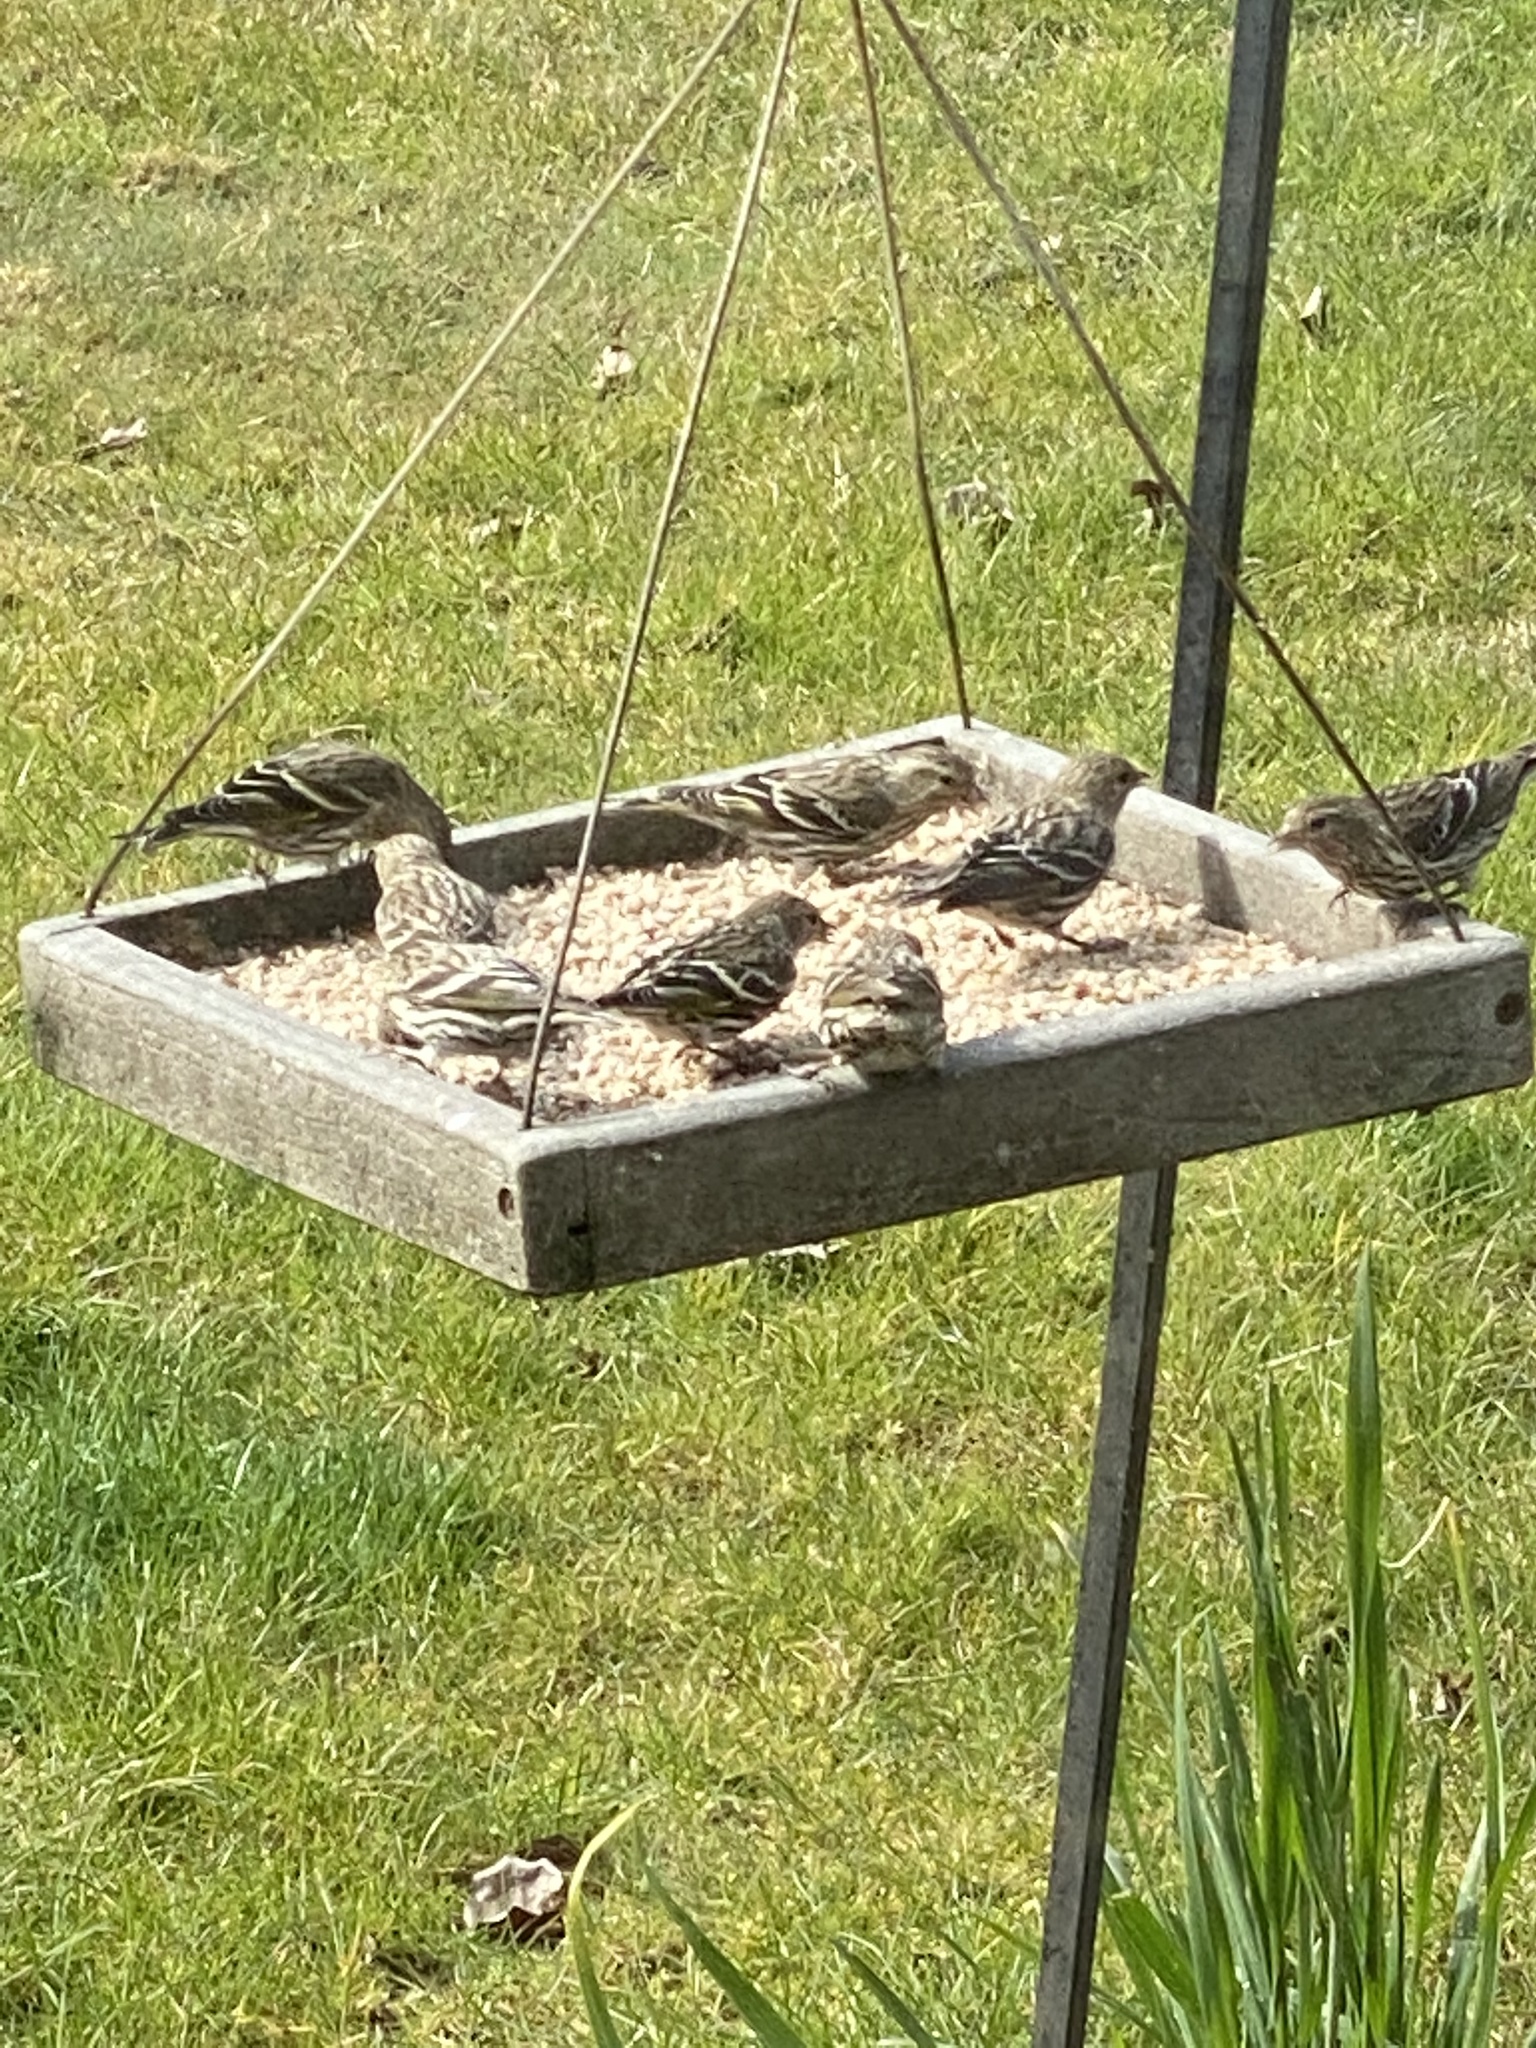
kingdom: Animalia
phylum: Chordata
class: Aves
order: Passeriformes
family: Fringillidae
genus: Spinus
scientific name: Spinus pinus
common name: Pine siskin
